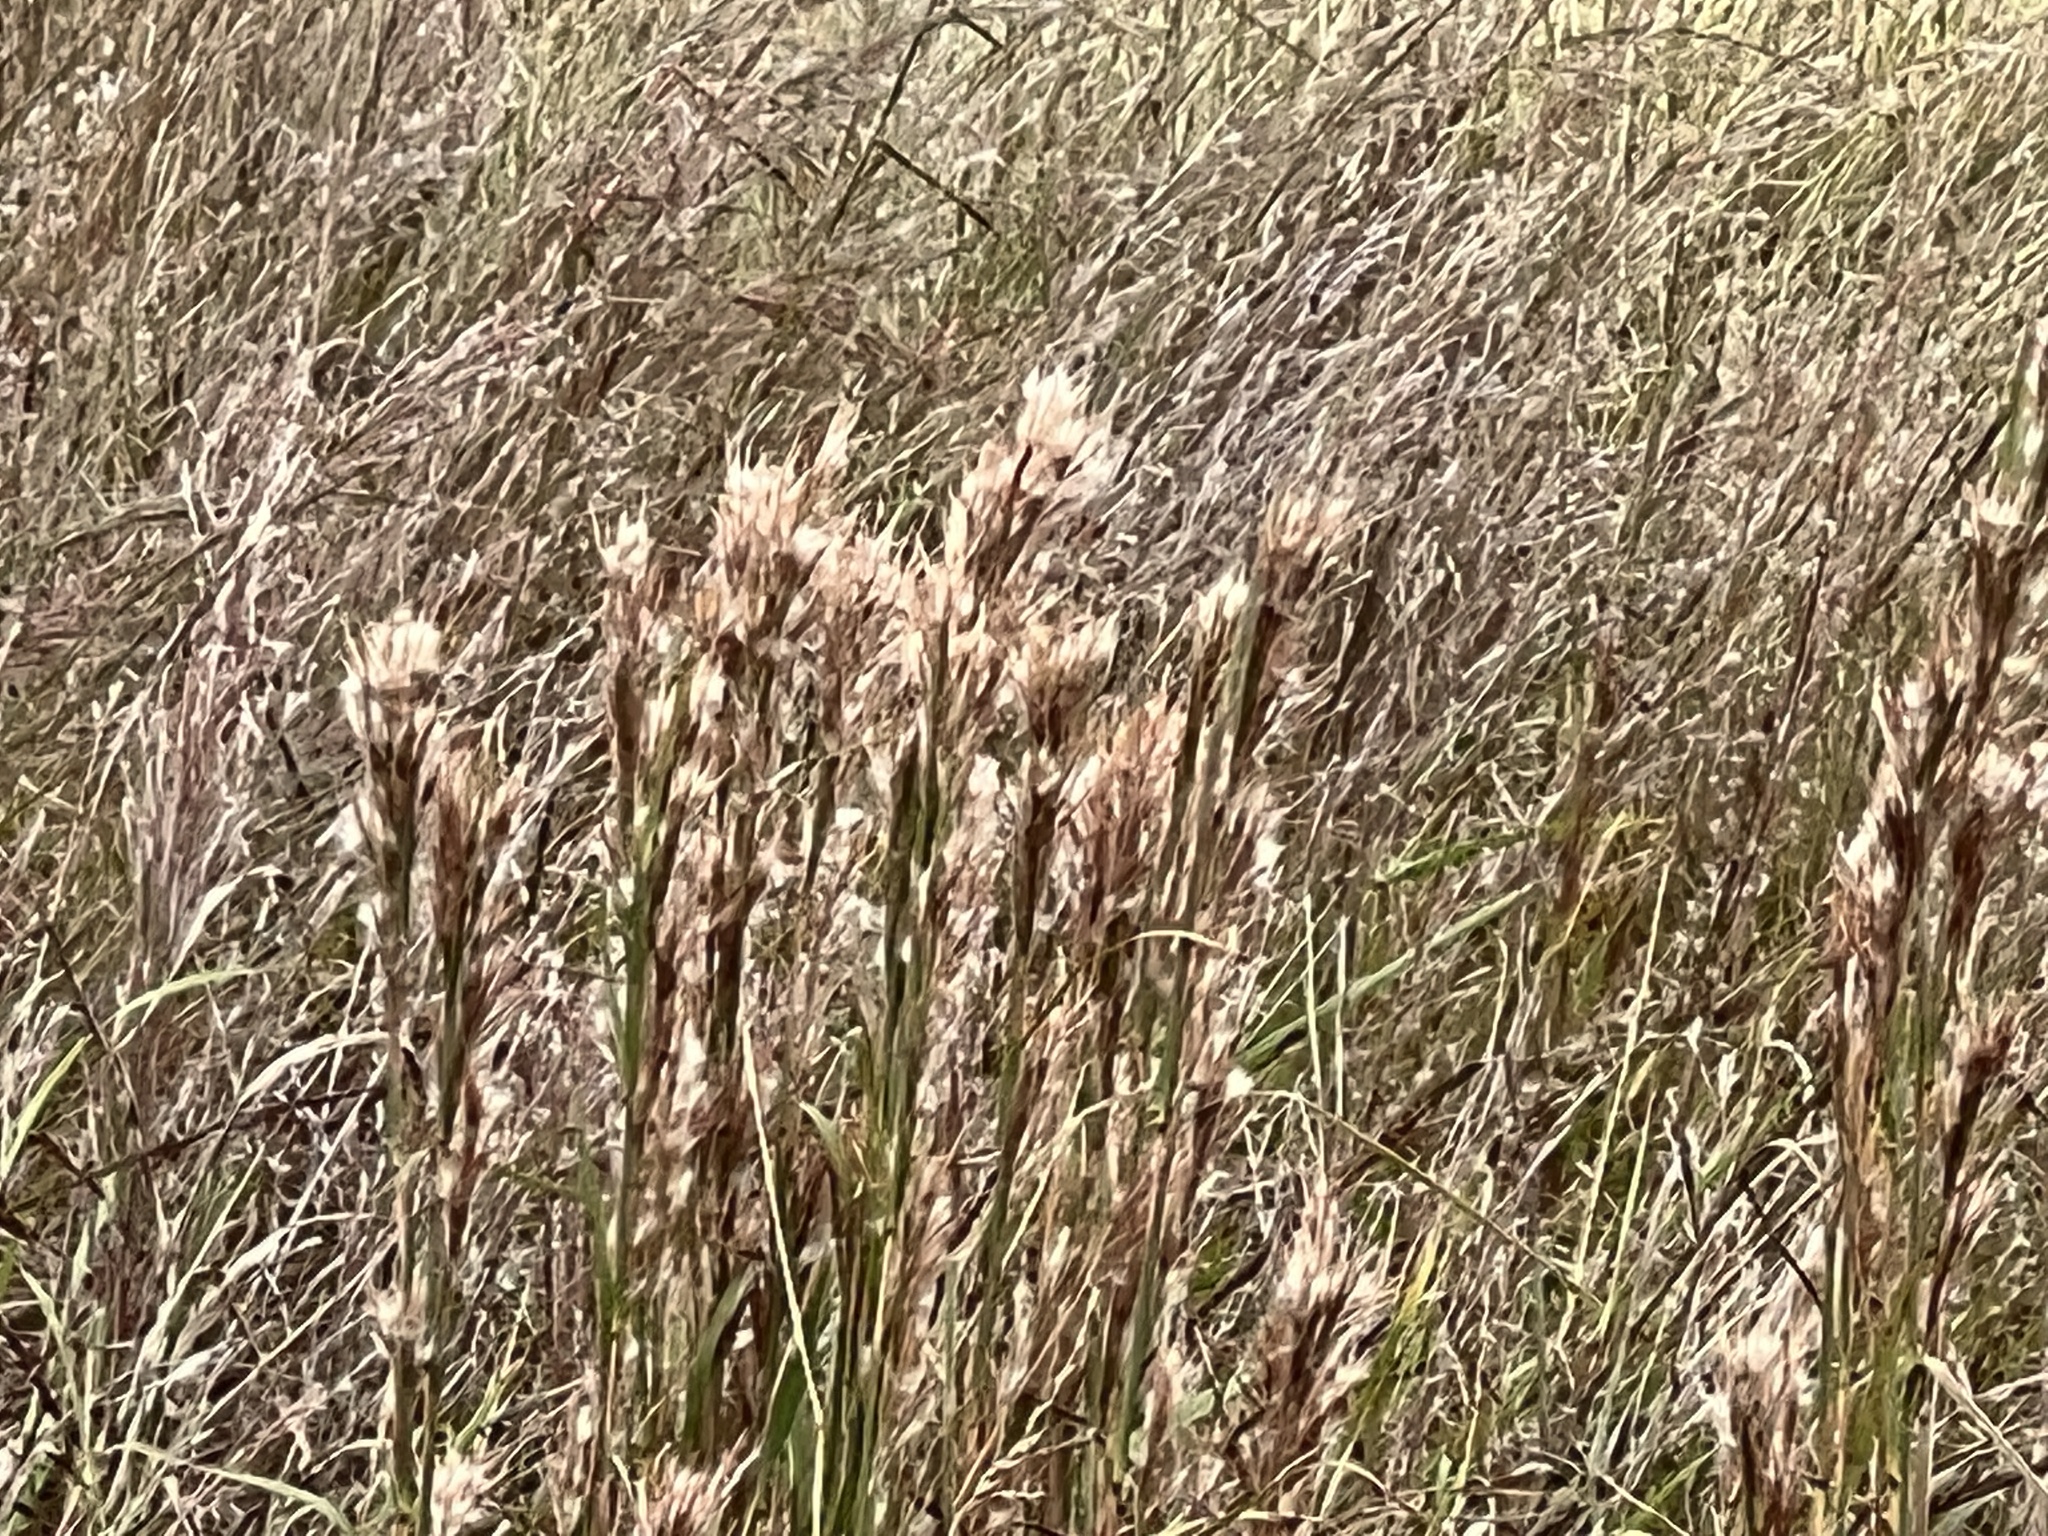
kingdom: Plantae
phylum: Tracheophyta
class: Liliopsida
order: Poales
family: Poaceae
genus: Andropogon
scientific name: Andropogon tenuispatheus
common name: Bushy bluestem
